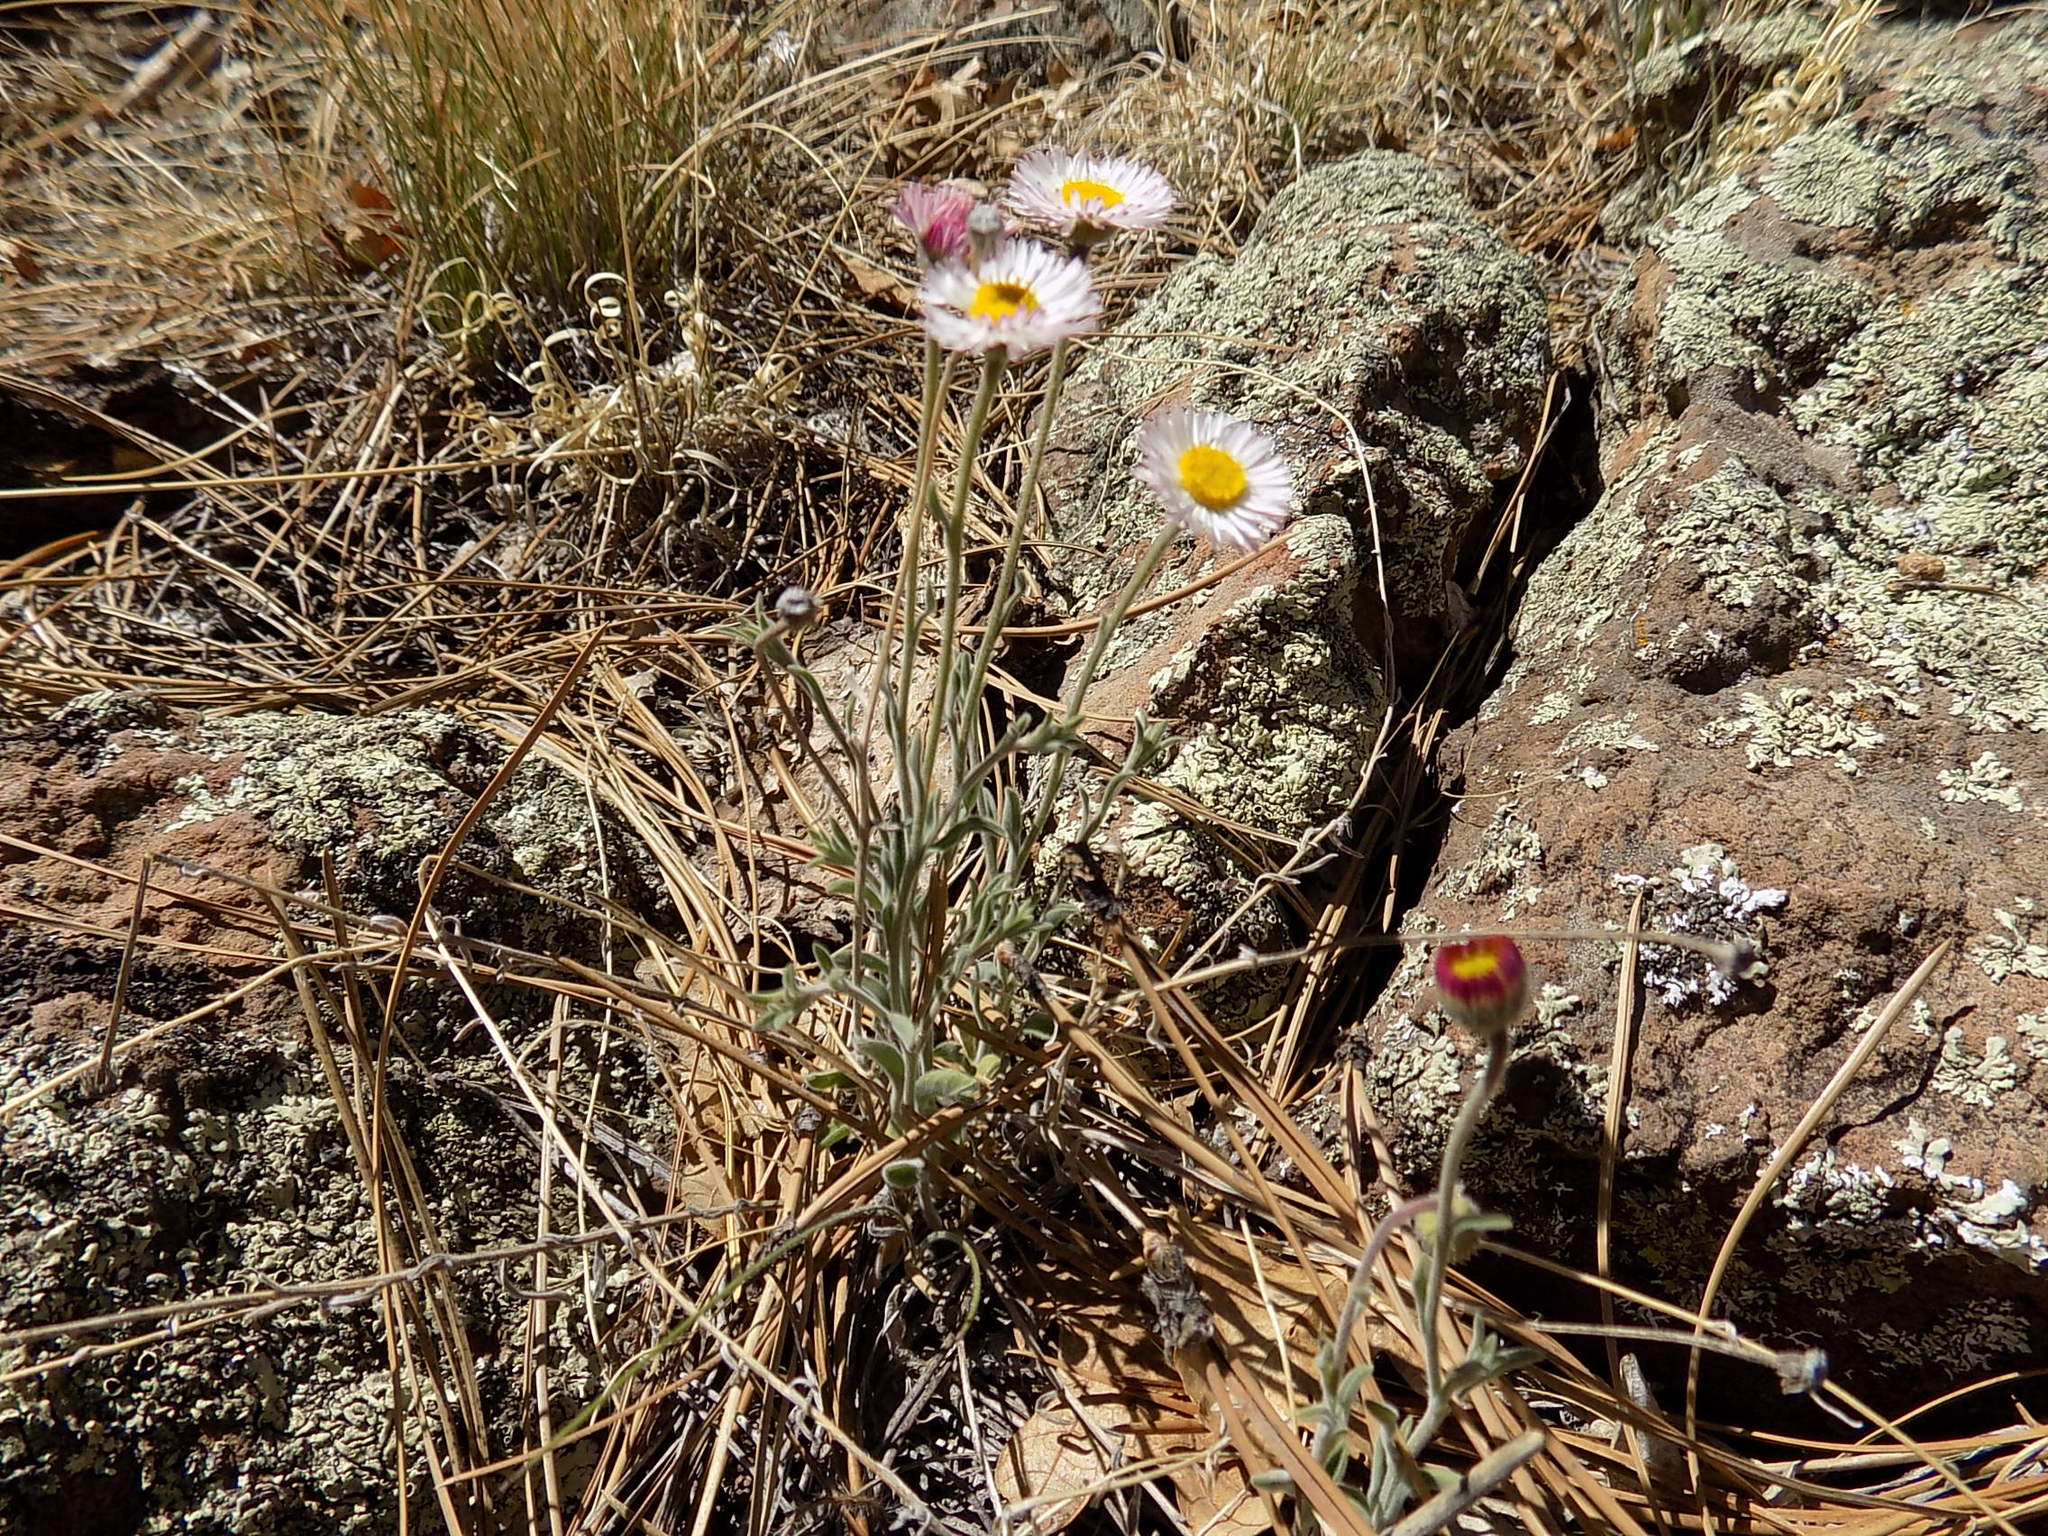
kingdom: Plantae
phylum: Tracheophyta
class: Magnoliopsida
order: Asterales
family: Asteraceae
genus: Erigeron
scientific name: Erigeron tracyi
